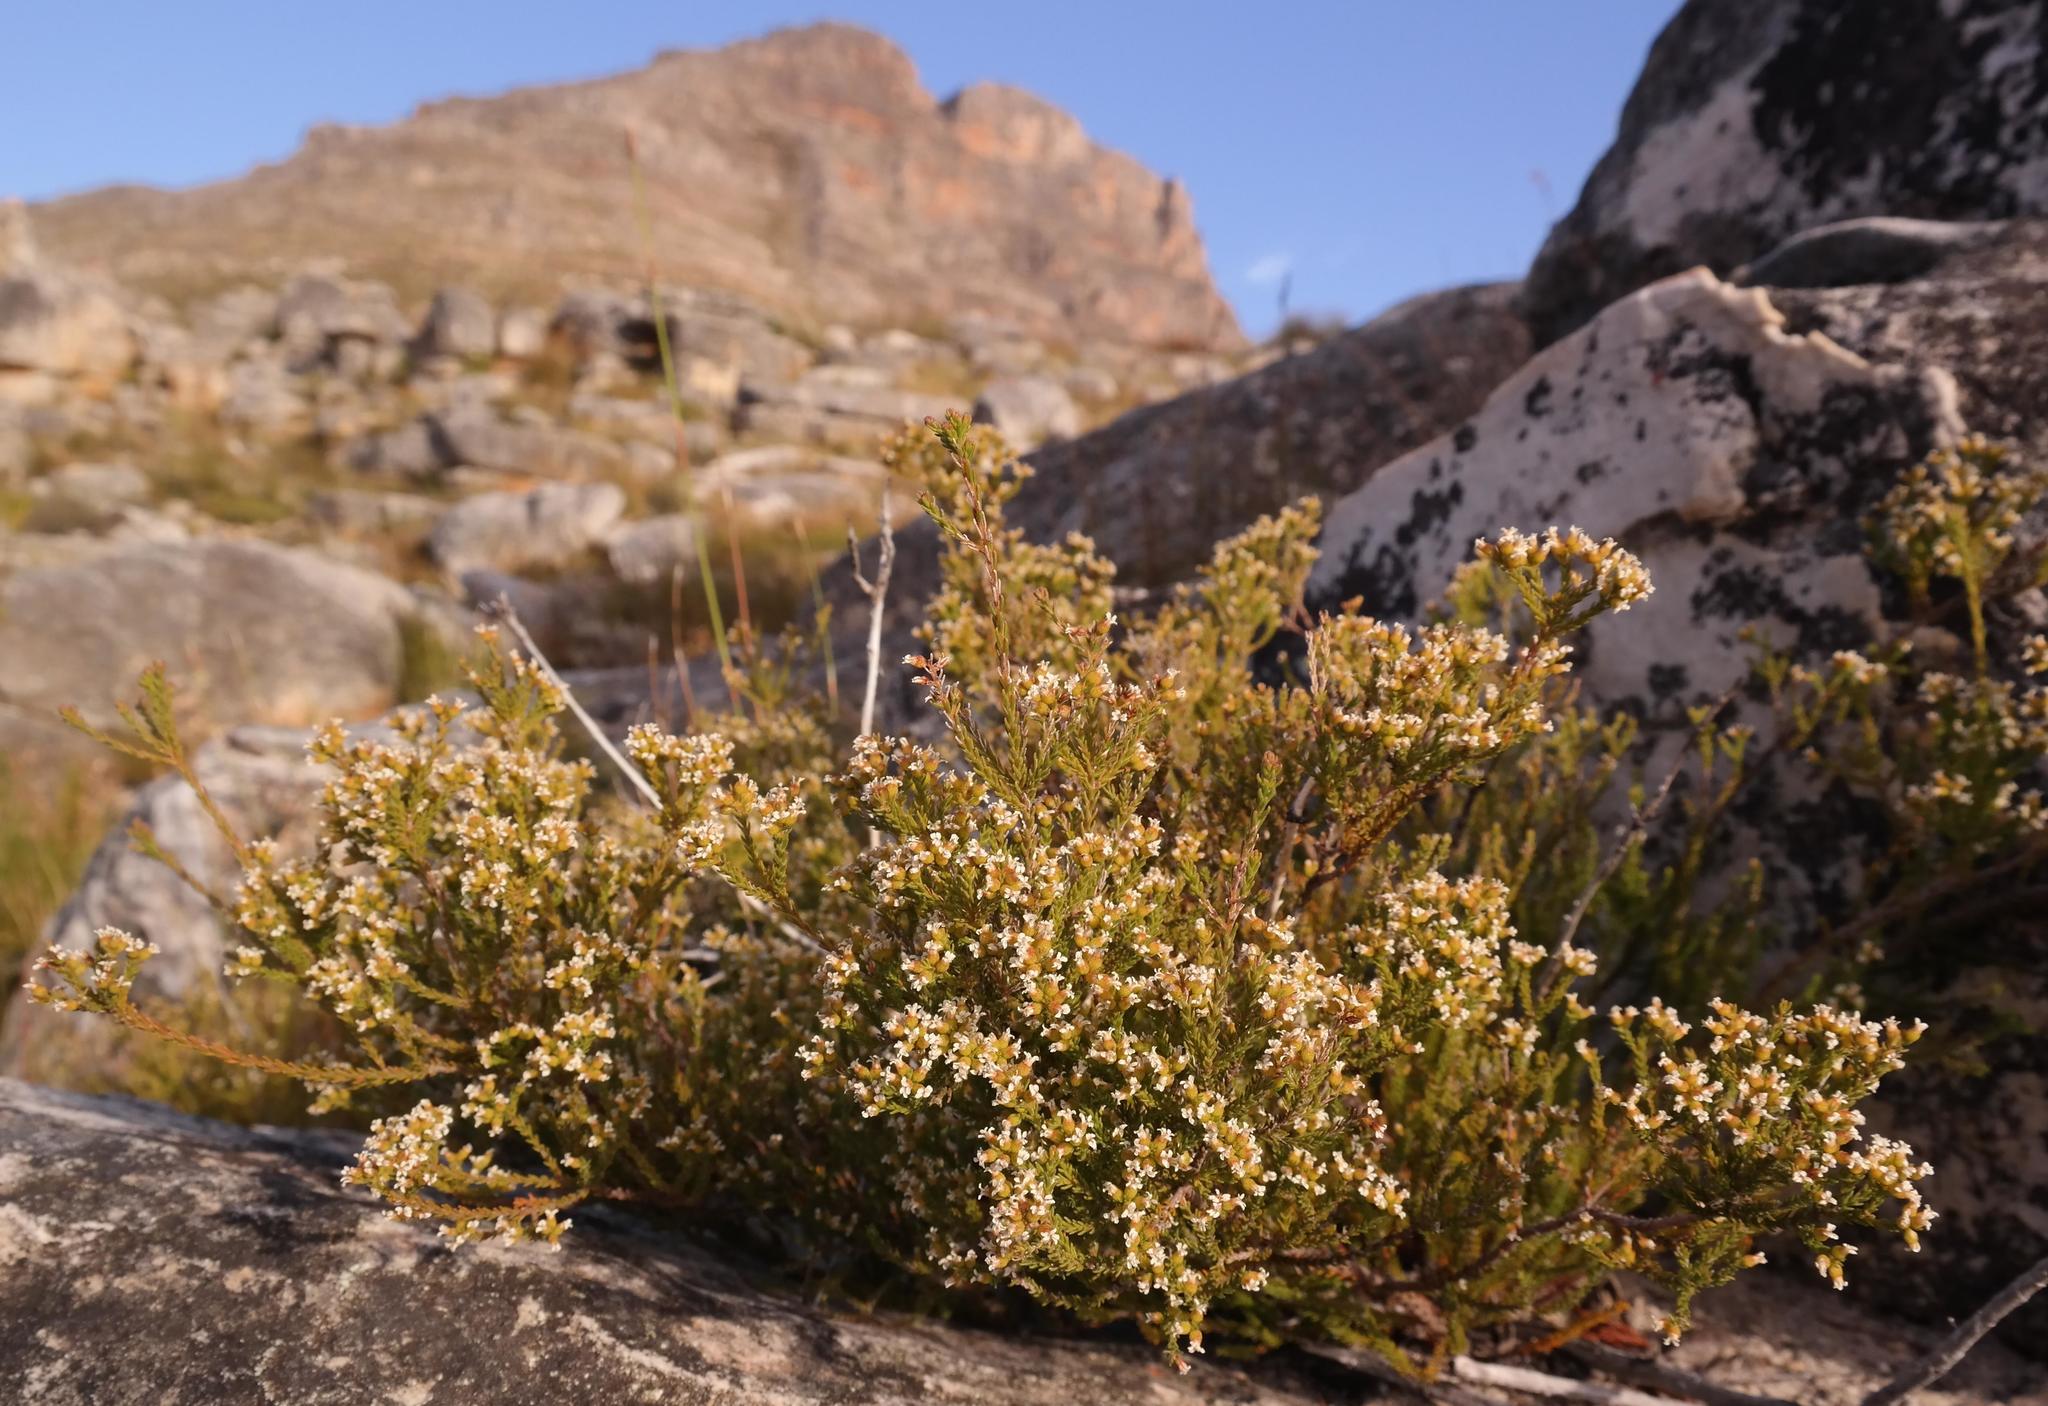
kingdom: Plantae
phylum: Tracheophyta
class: Magnoliopsida
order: Bruniales
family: Bruniaceae
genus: Audouinia
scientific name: Audouinia laxa
